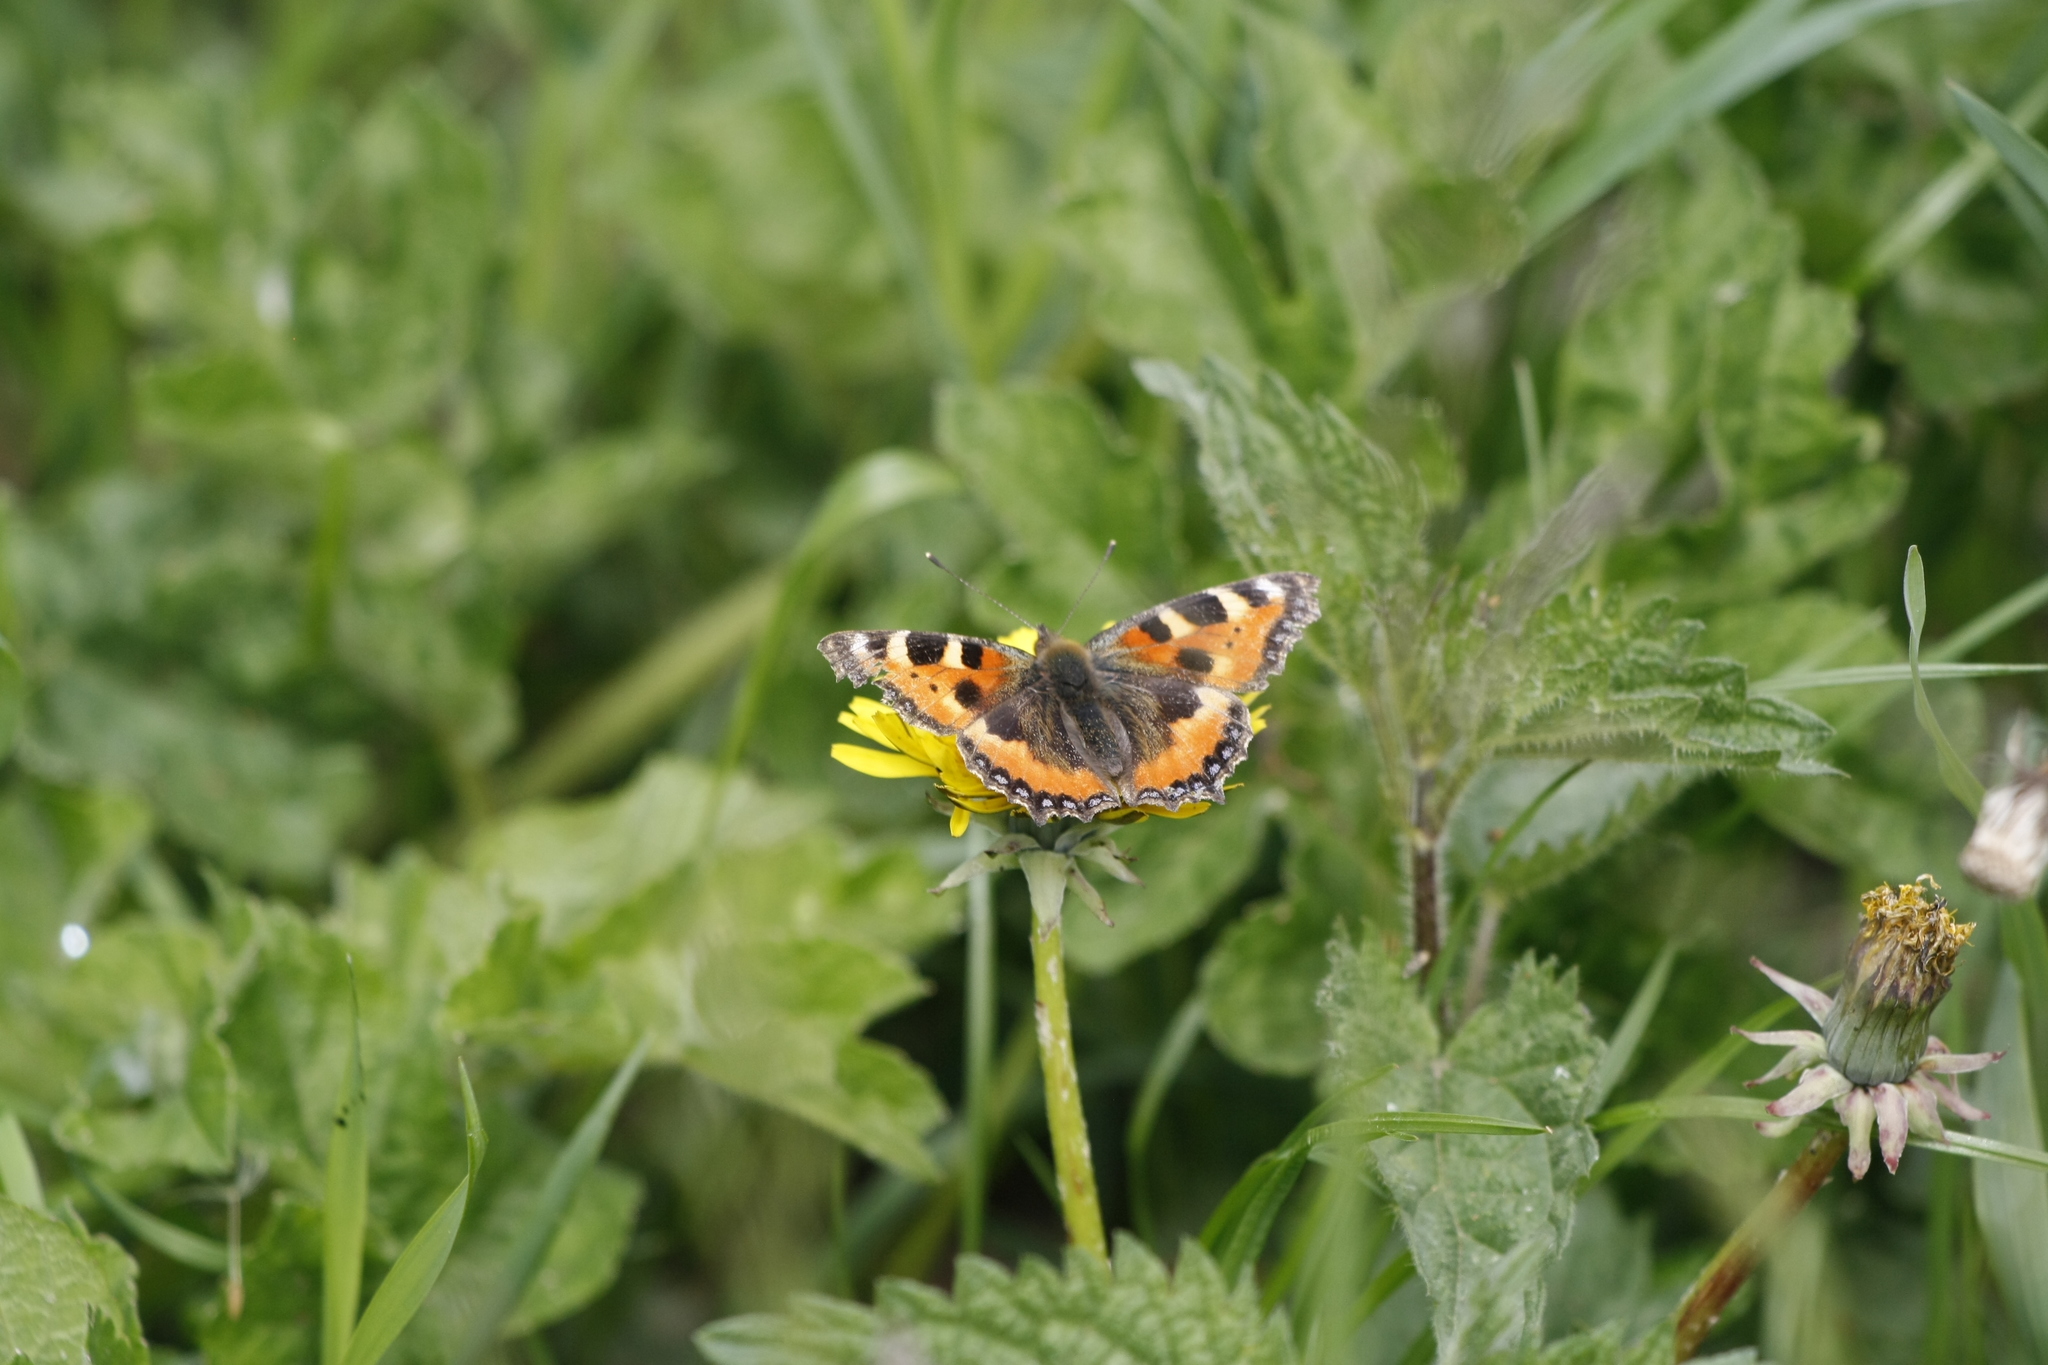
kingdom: Animalia
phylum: Arthropoda
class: Insecta
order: Lepidoptera
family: Nymphalidae
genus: Aglais
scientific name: Aglais urticae
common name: Small tortoiseshell
